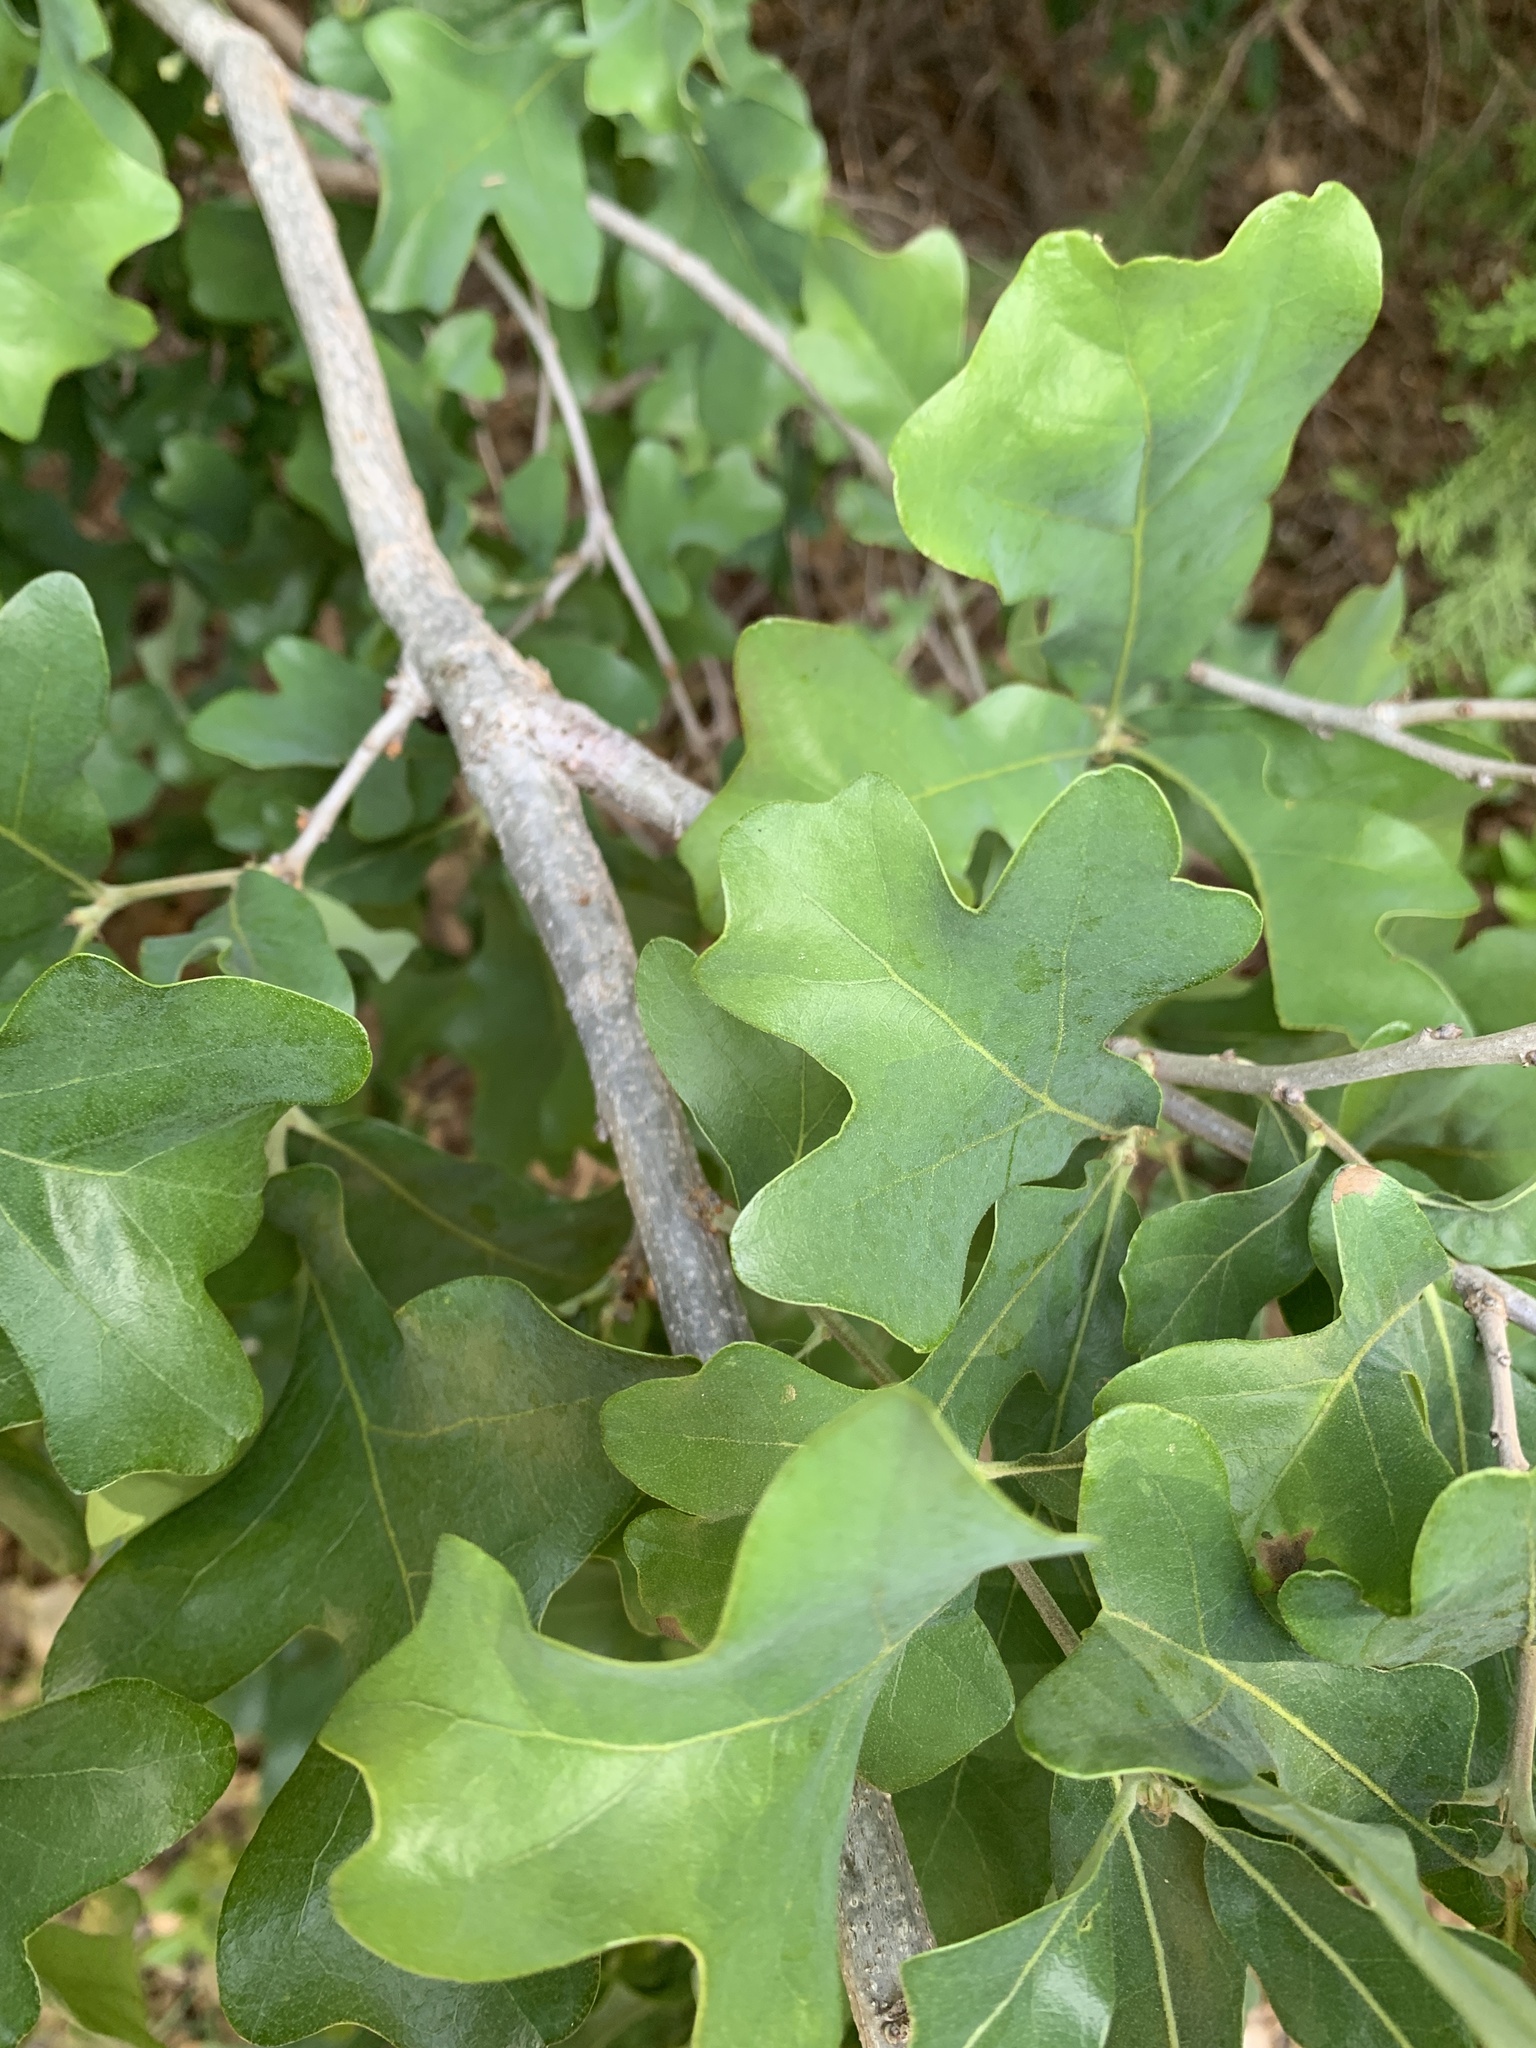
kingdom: Plantae
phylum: Tracheophyta
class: Magnoliopsida
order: Fagales
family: Fagaceae
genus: Quercus
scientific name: Quercus stellata
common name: Post oak
